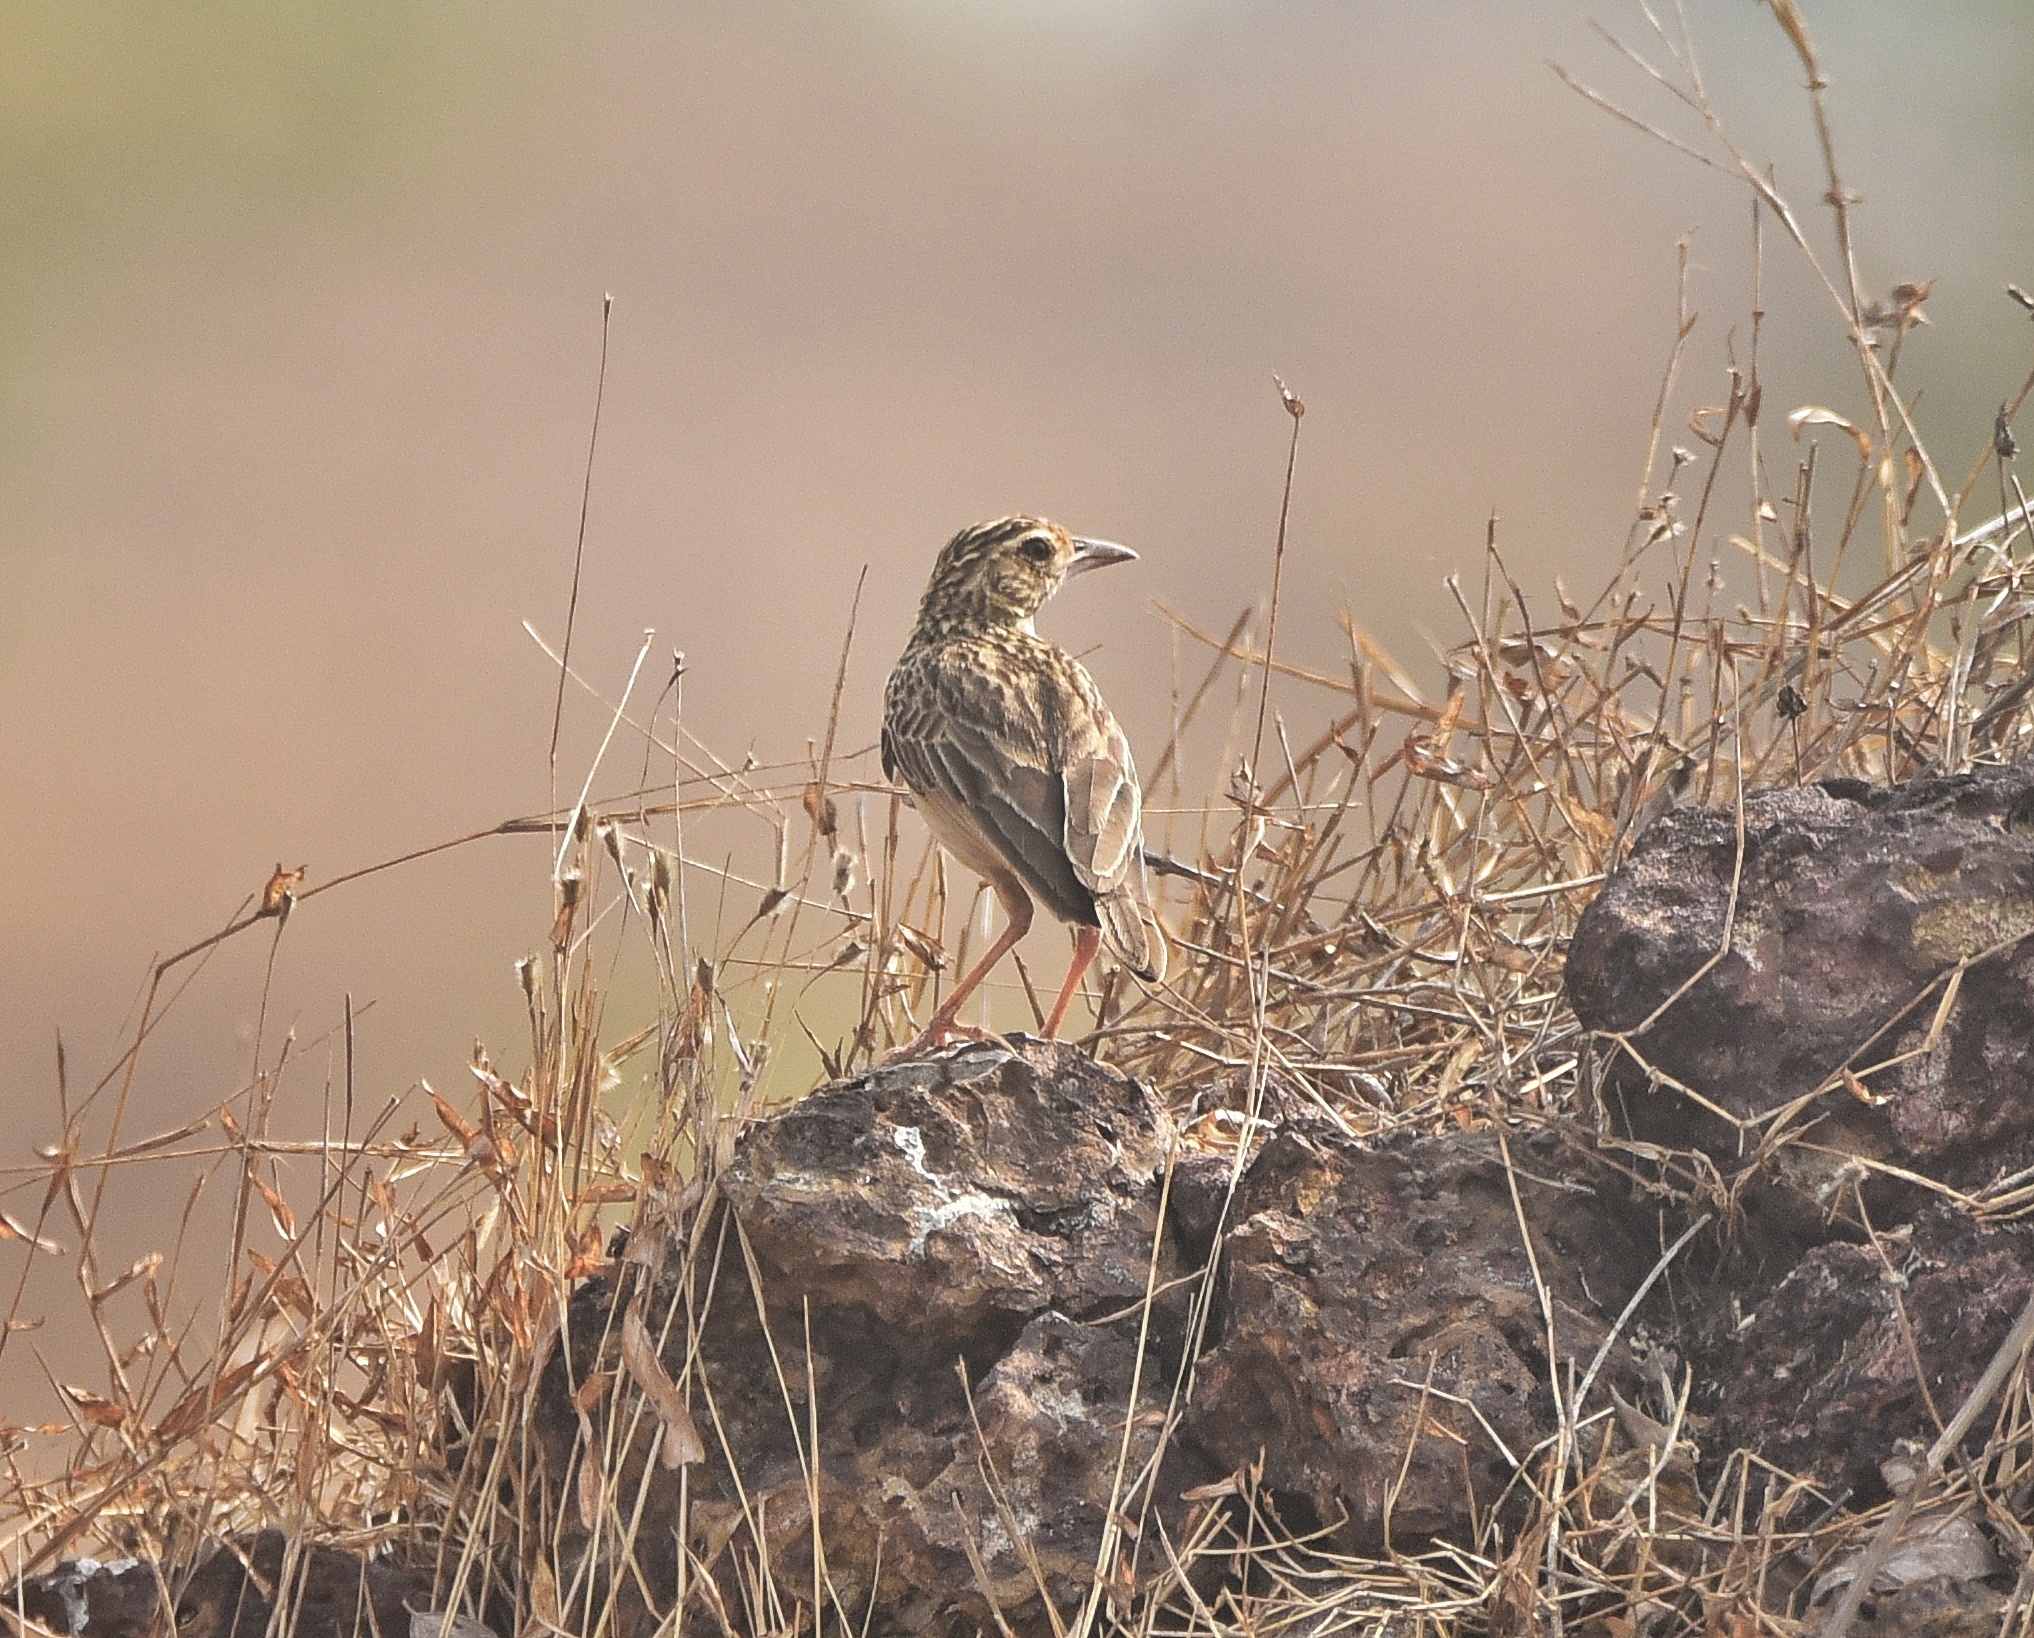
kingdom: Animalia
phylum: Chordata
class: Aves
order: Passeriformes
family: Alaudidae
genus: Mirafra
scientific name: Mirafra affinis
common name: Jerdon's bushlark
